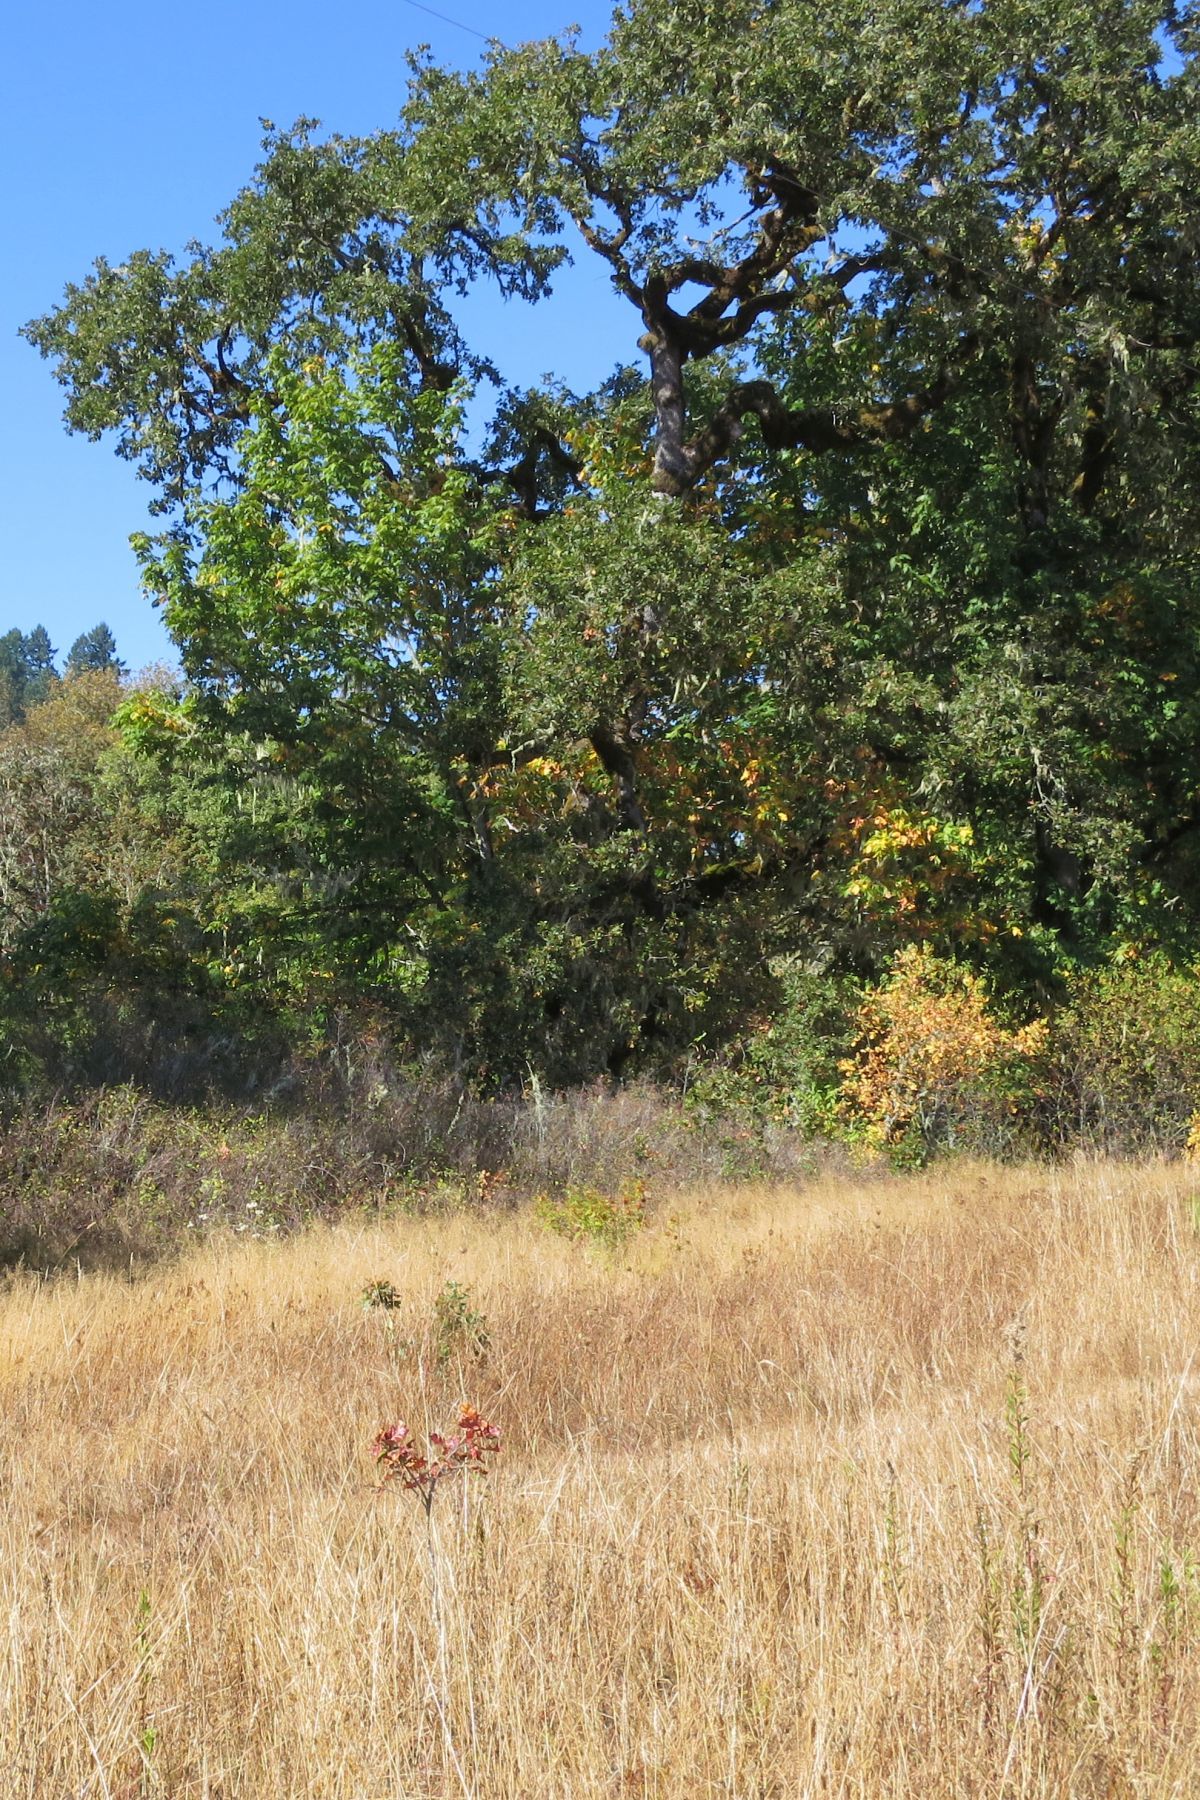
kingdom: Plantae
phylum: Tracheophyta
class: Magnoliopsida
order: Fagales
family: Fagaceae
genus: Quercus
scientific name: Quercus garryana
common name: Garry oak
